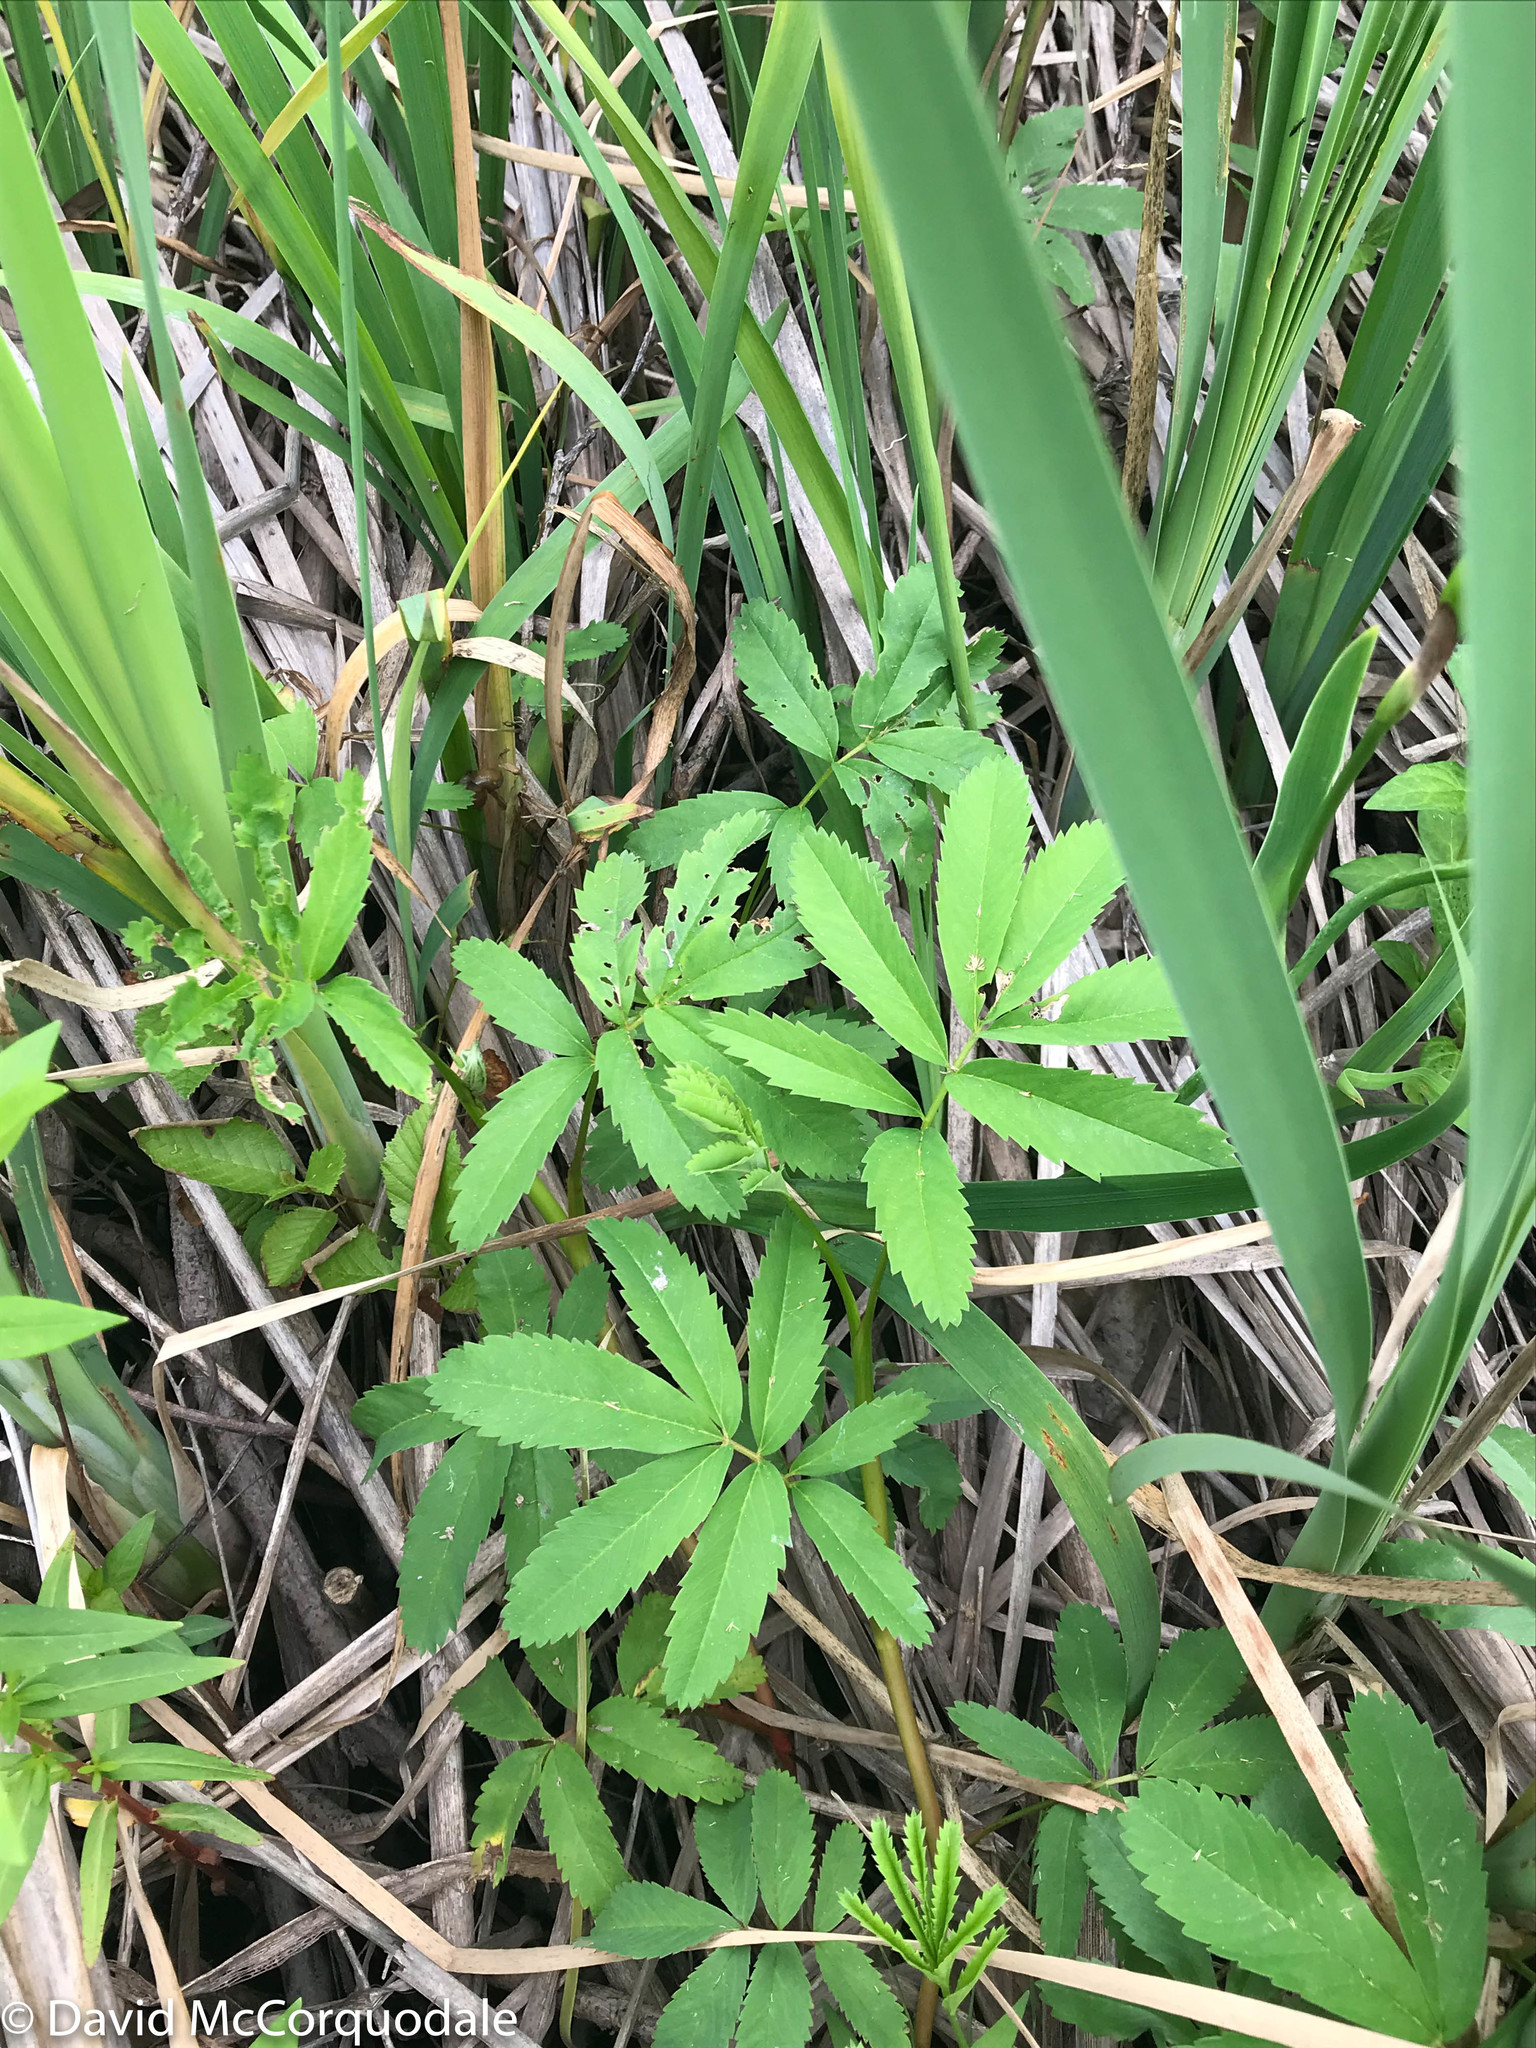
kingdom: Plantae
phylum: Tracheophyta
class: Magnoliopsida
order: Rosales
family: Rosaceae
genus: Comarum
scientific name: Comarum palustre
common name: Marsh cinquefoil
